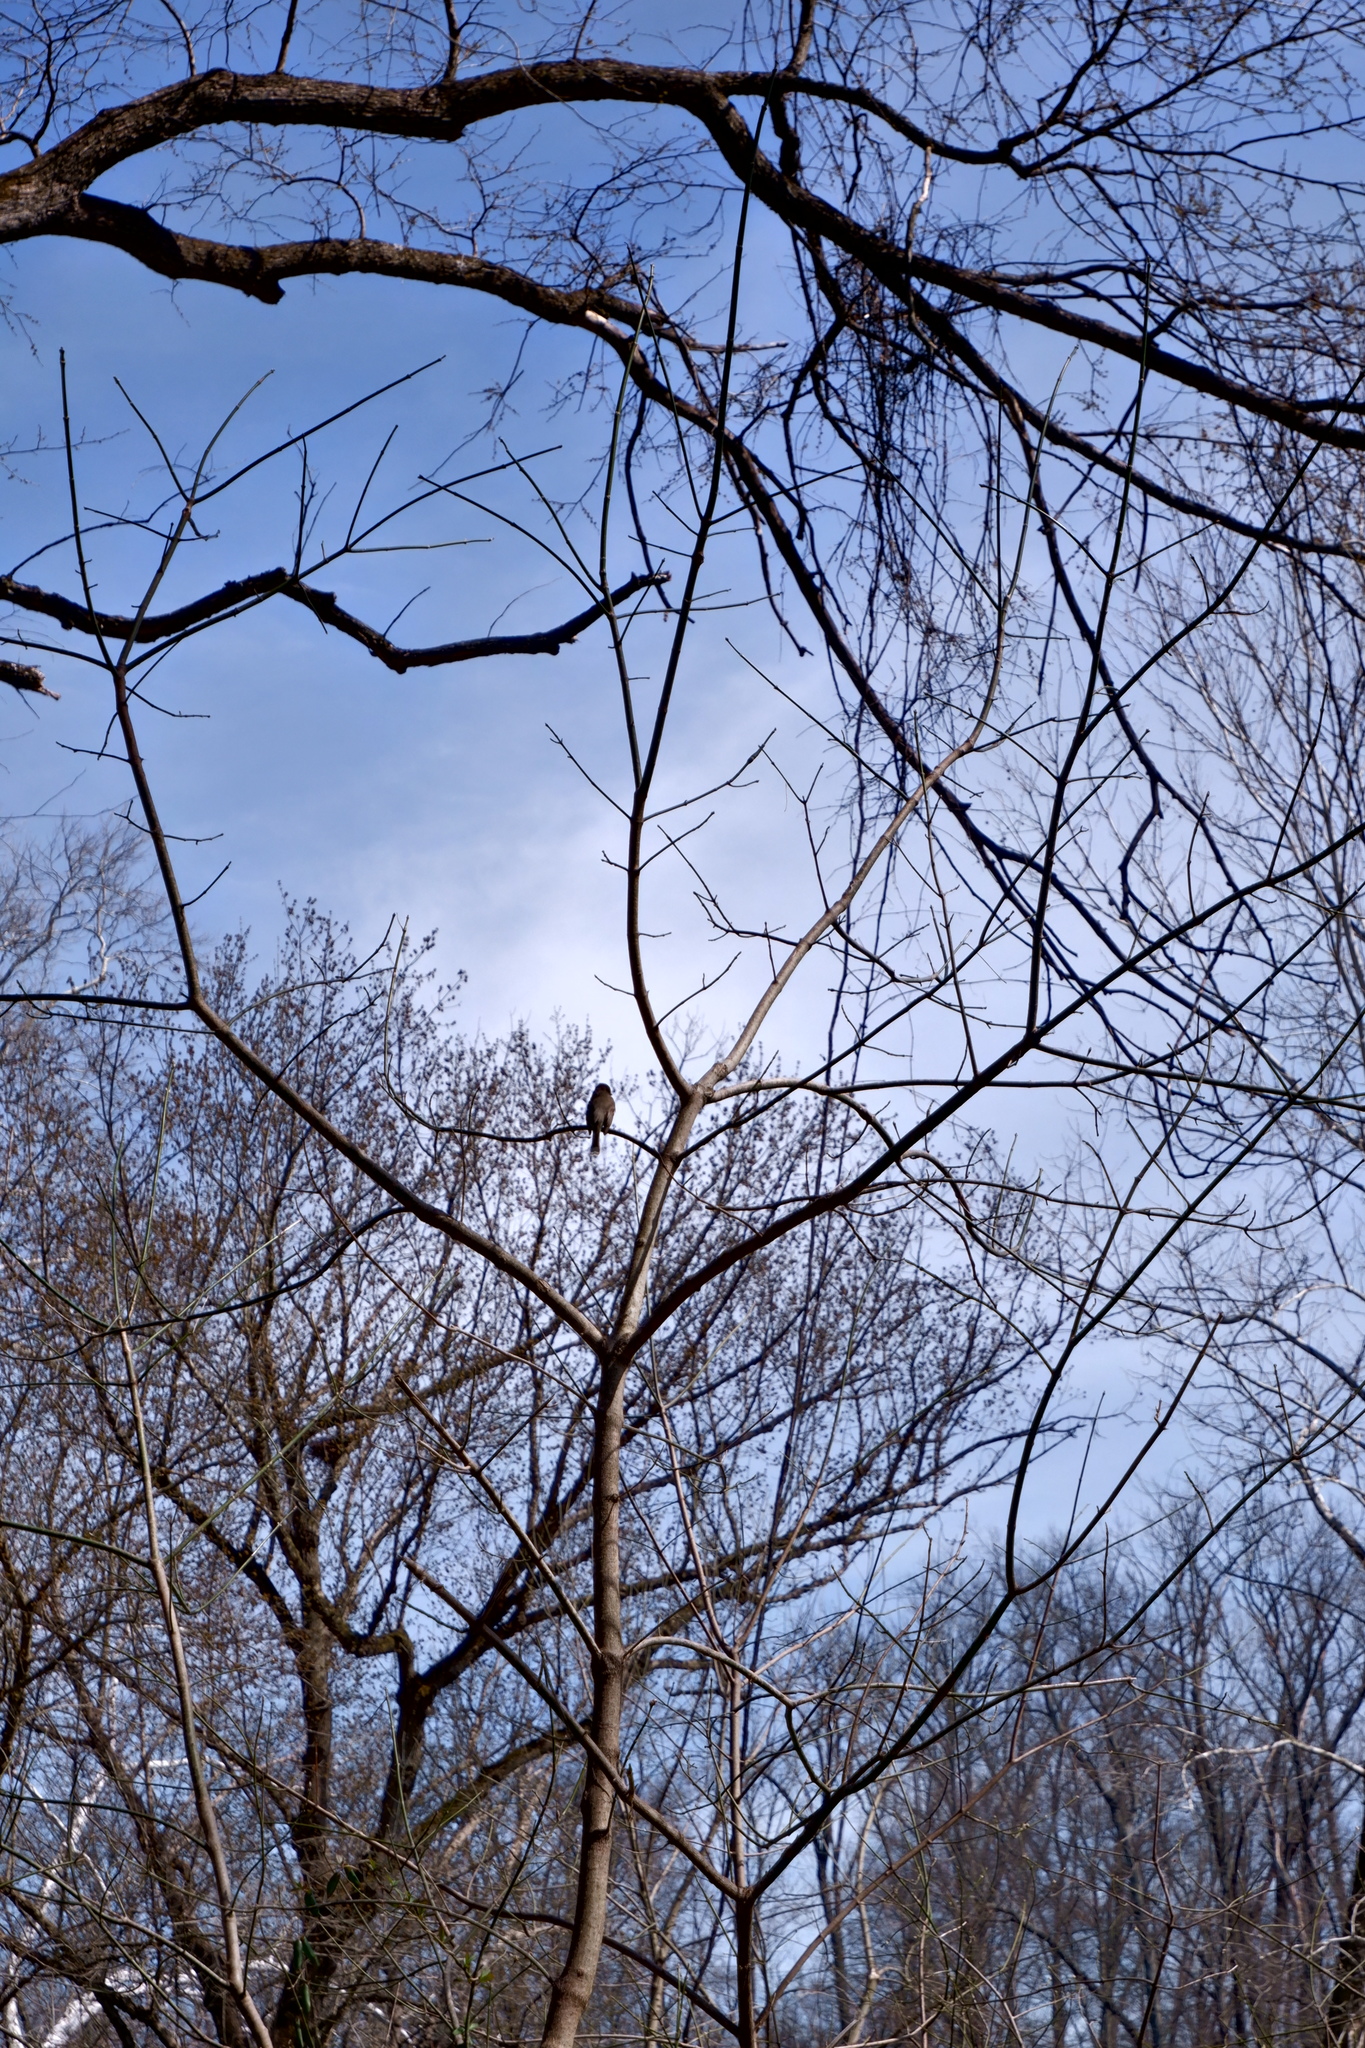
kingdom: Animalia
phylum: Chordata
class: Aves
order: Passeriformes
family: Tyrannidae
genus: Sayornis
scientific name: Sayornis phoebe
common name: Eastern phoebe
